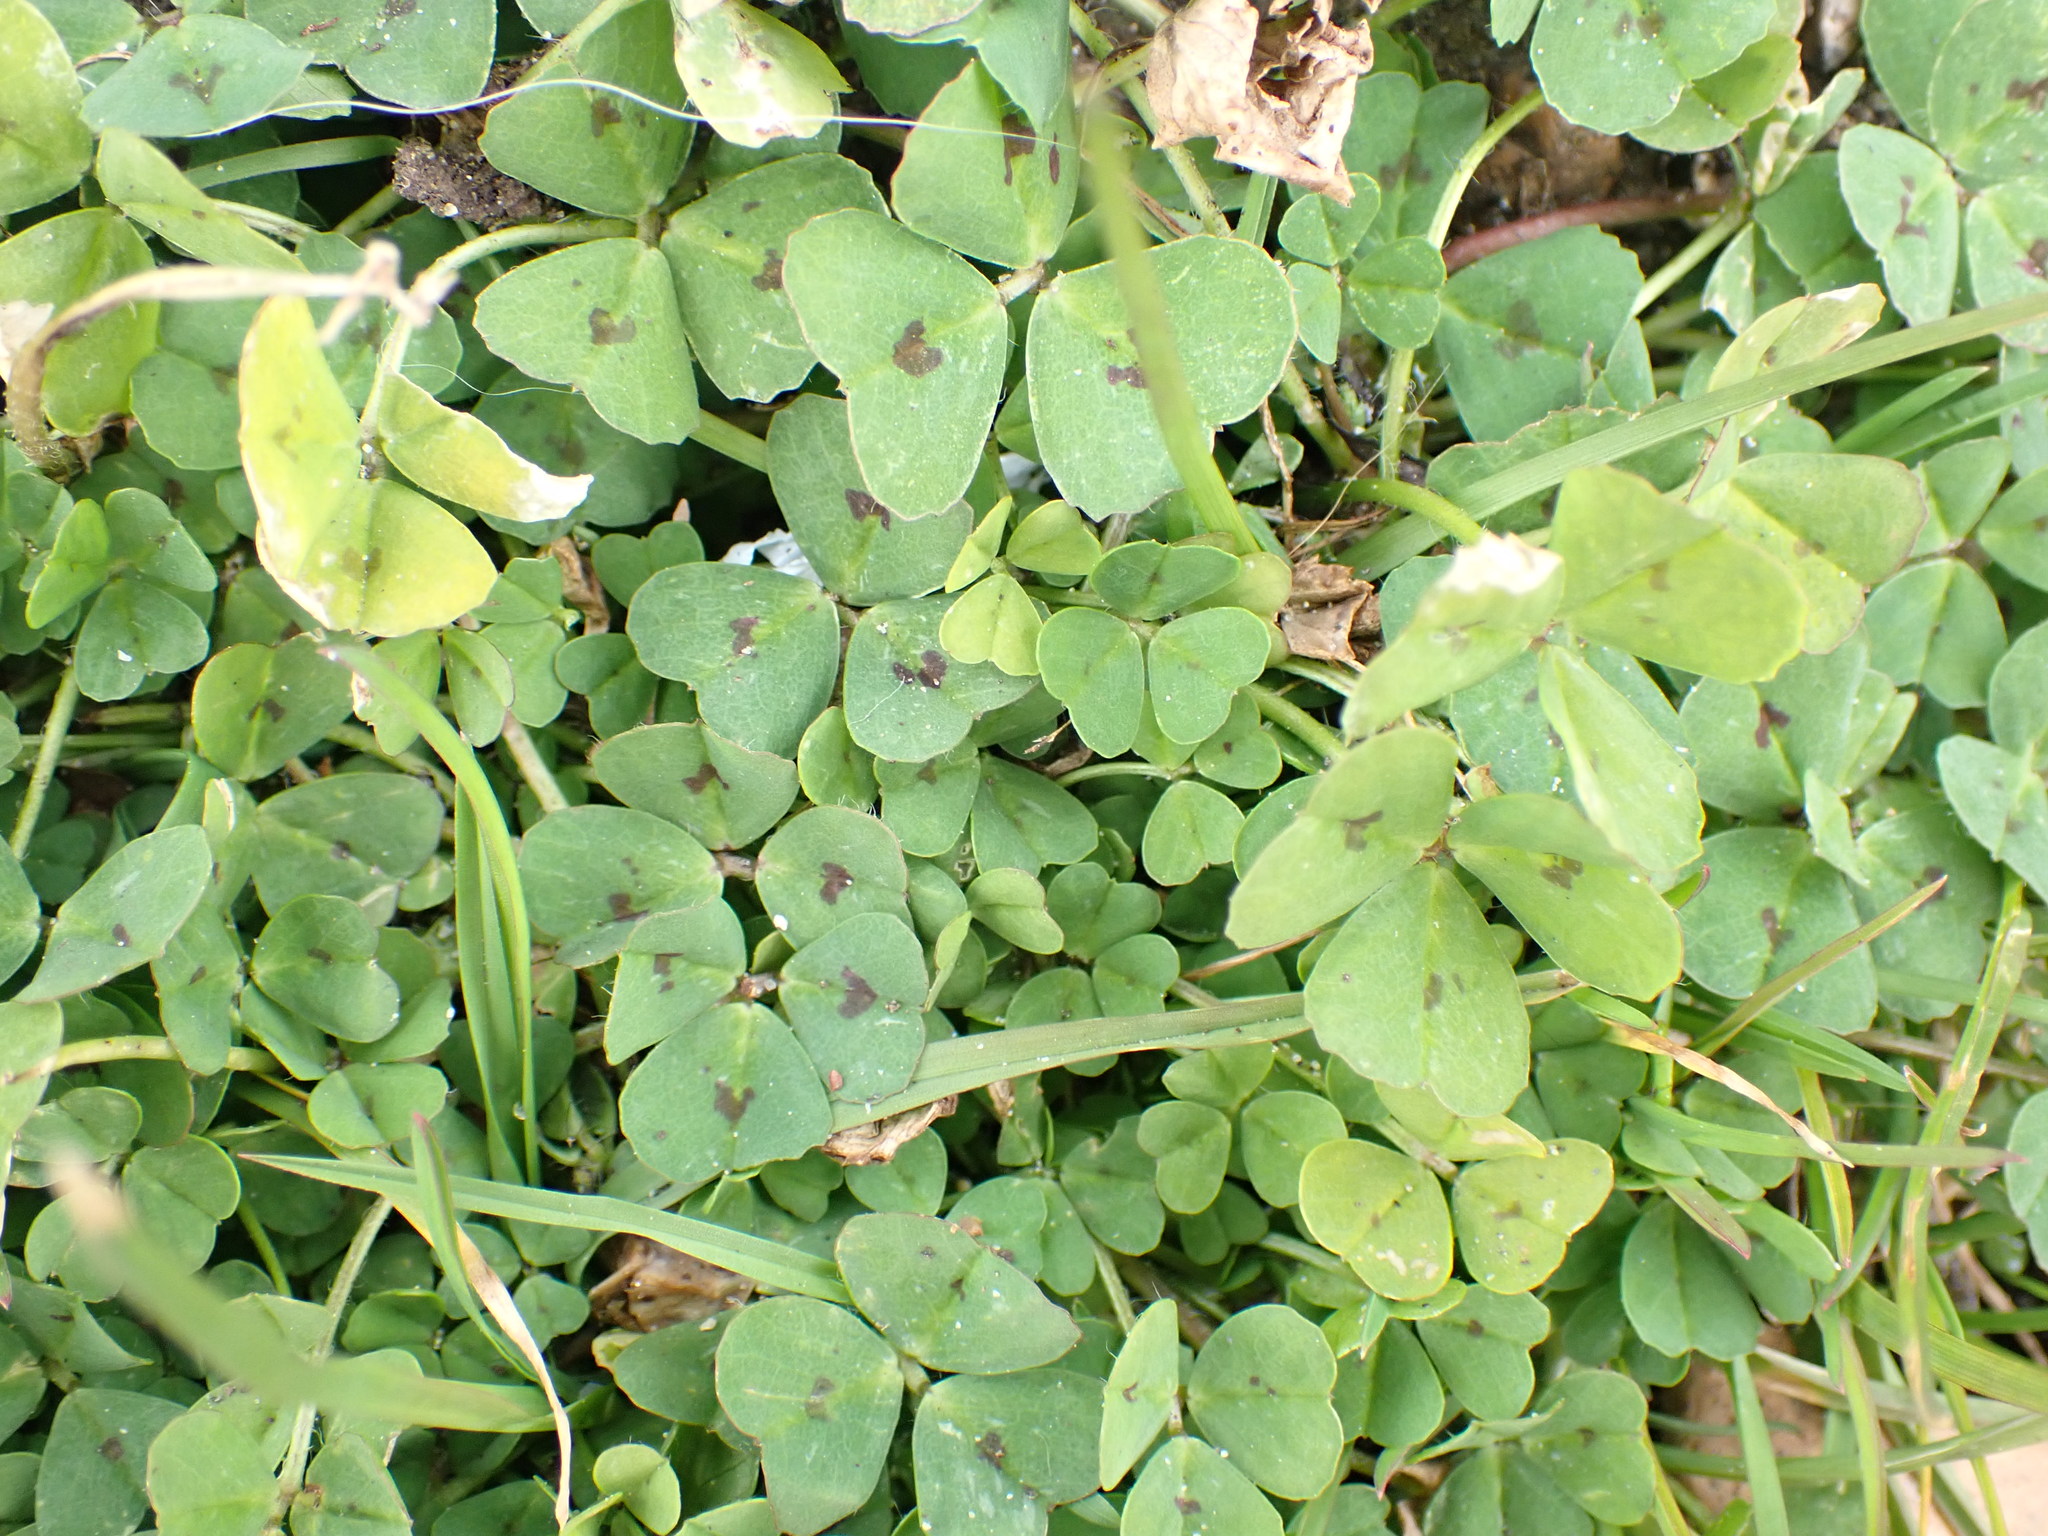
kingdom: Plantae
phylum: Tracheophyta
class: Magnoliopsida
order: Fabales
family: Fabaceae
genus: Medicago
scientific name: Medicago arabica
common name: Spotted medick
